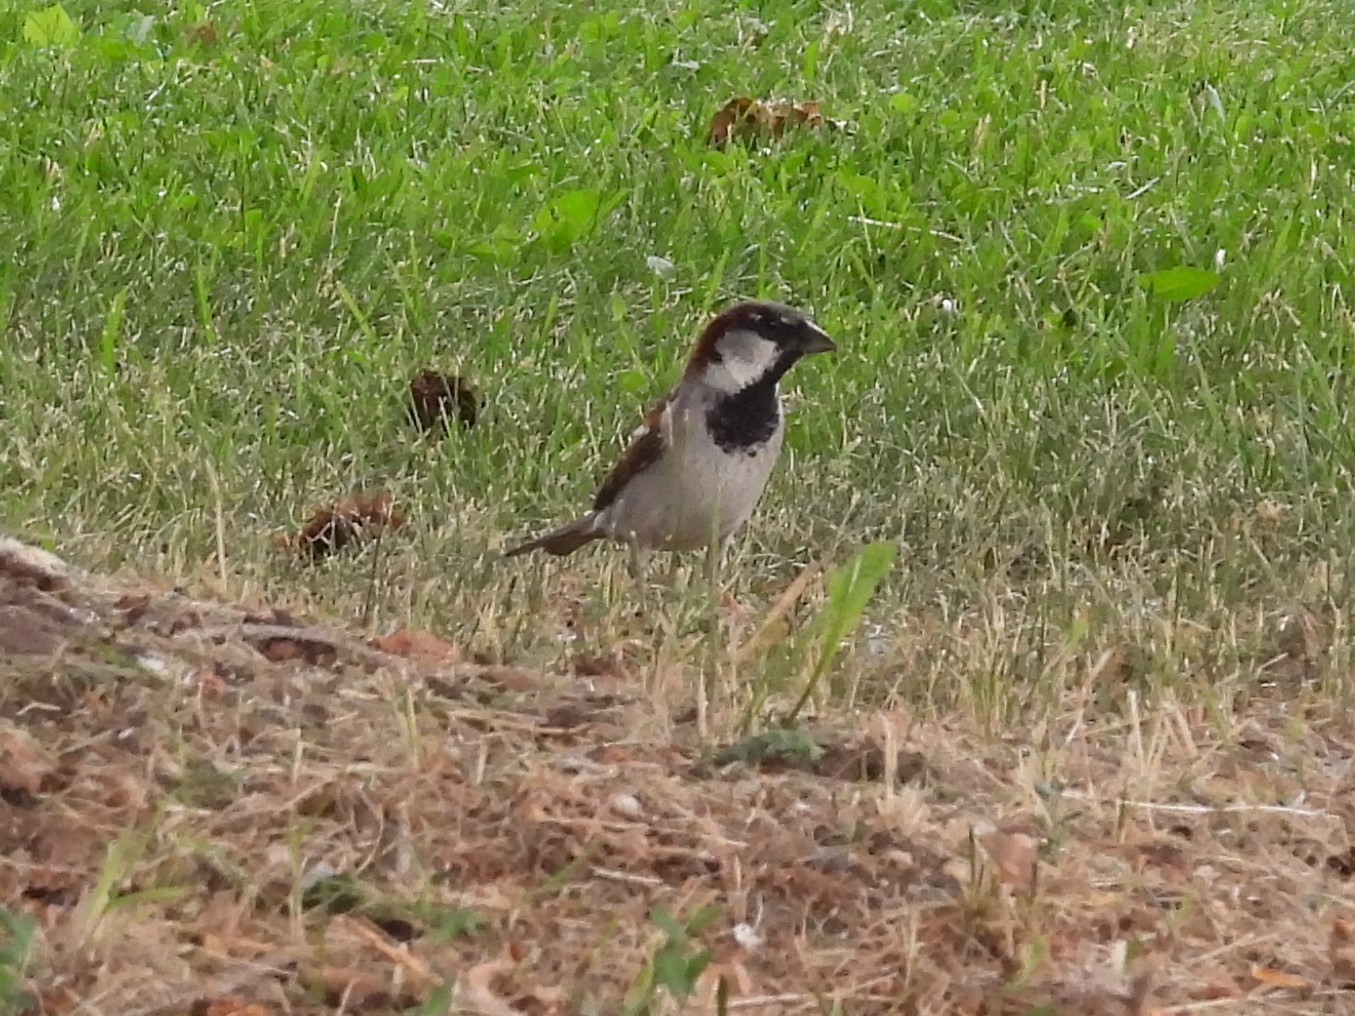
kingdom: Animalia
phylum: Chordata
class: Aves
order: Passeriformes
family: Passeridae
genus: Passer
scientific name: Passer domesticus
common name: House sparrow
